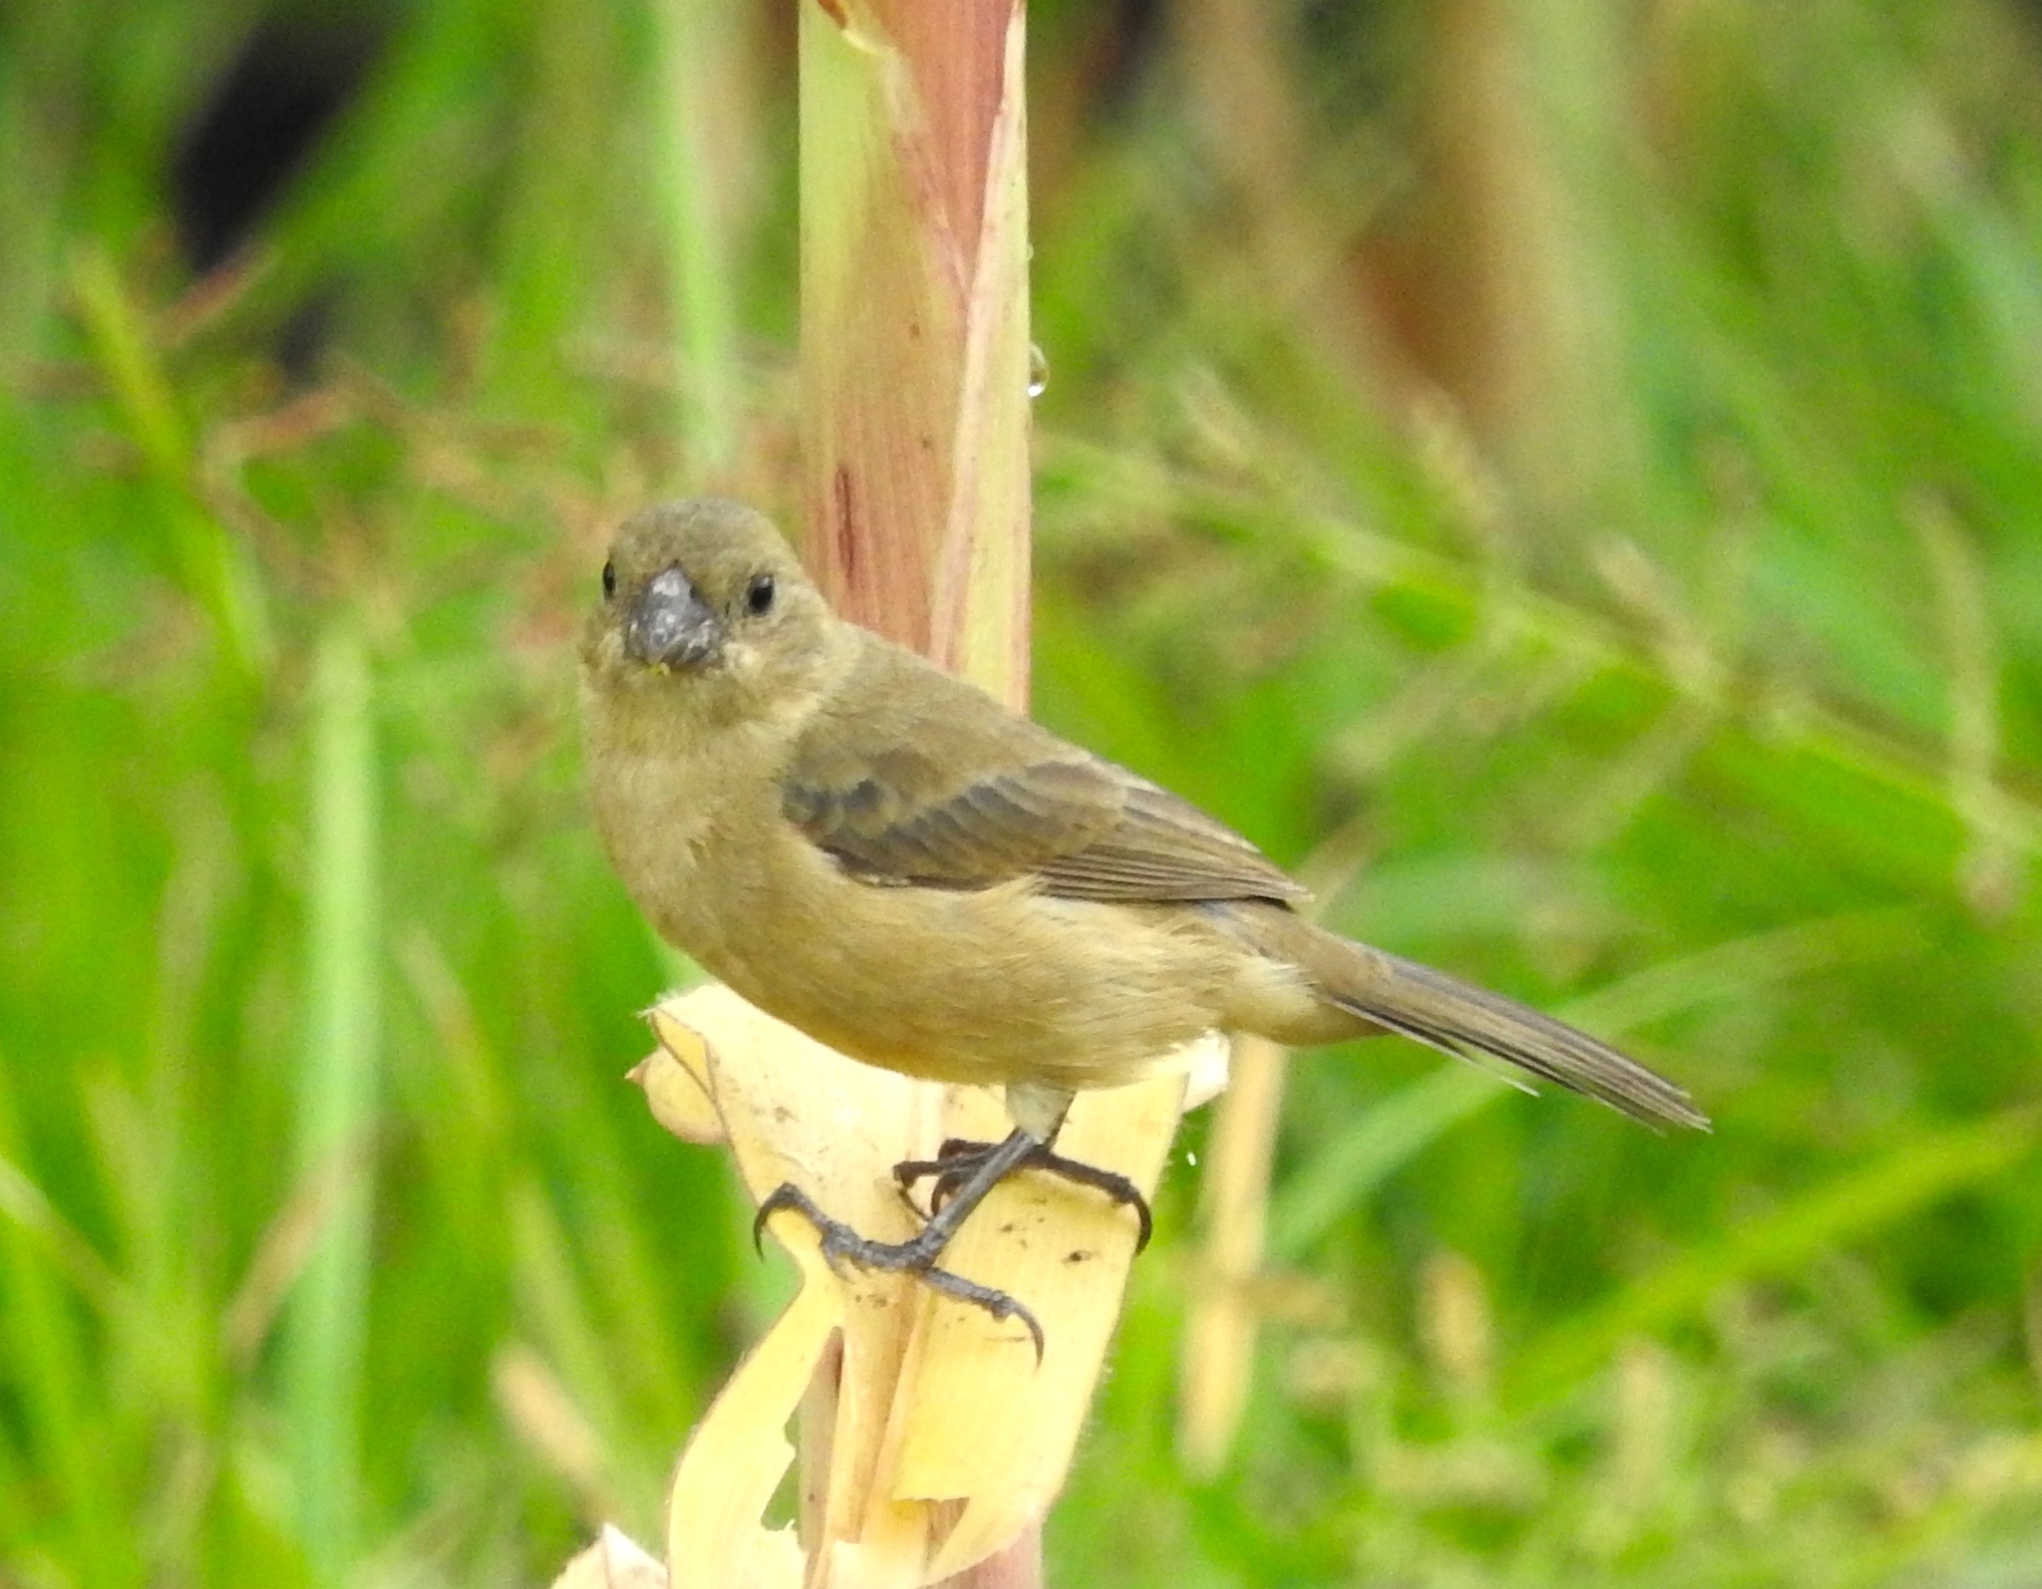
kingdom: Animalia
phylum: Chordata
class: Aves
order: Passeriformes
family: Thraupidae
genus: Sporophila
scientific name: Sporophila torqueola
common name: White-collared seedeater
